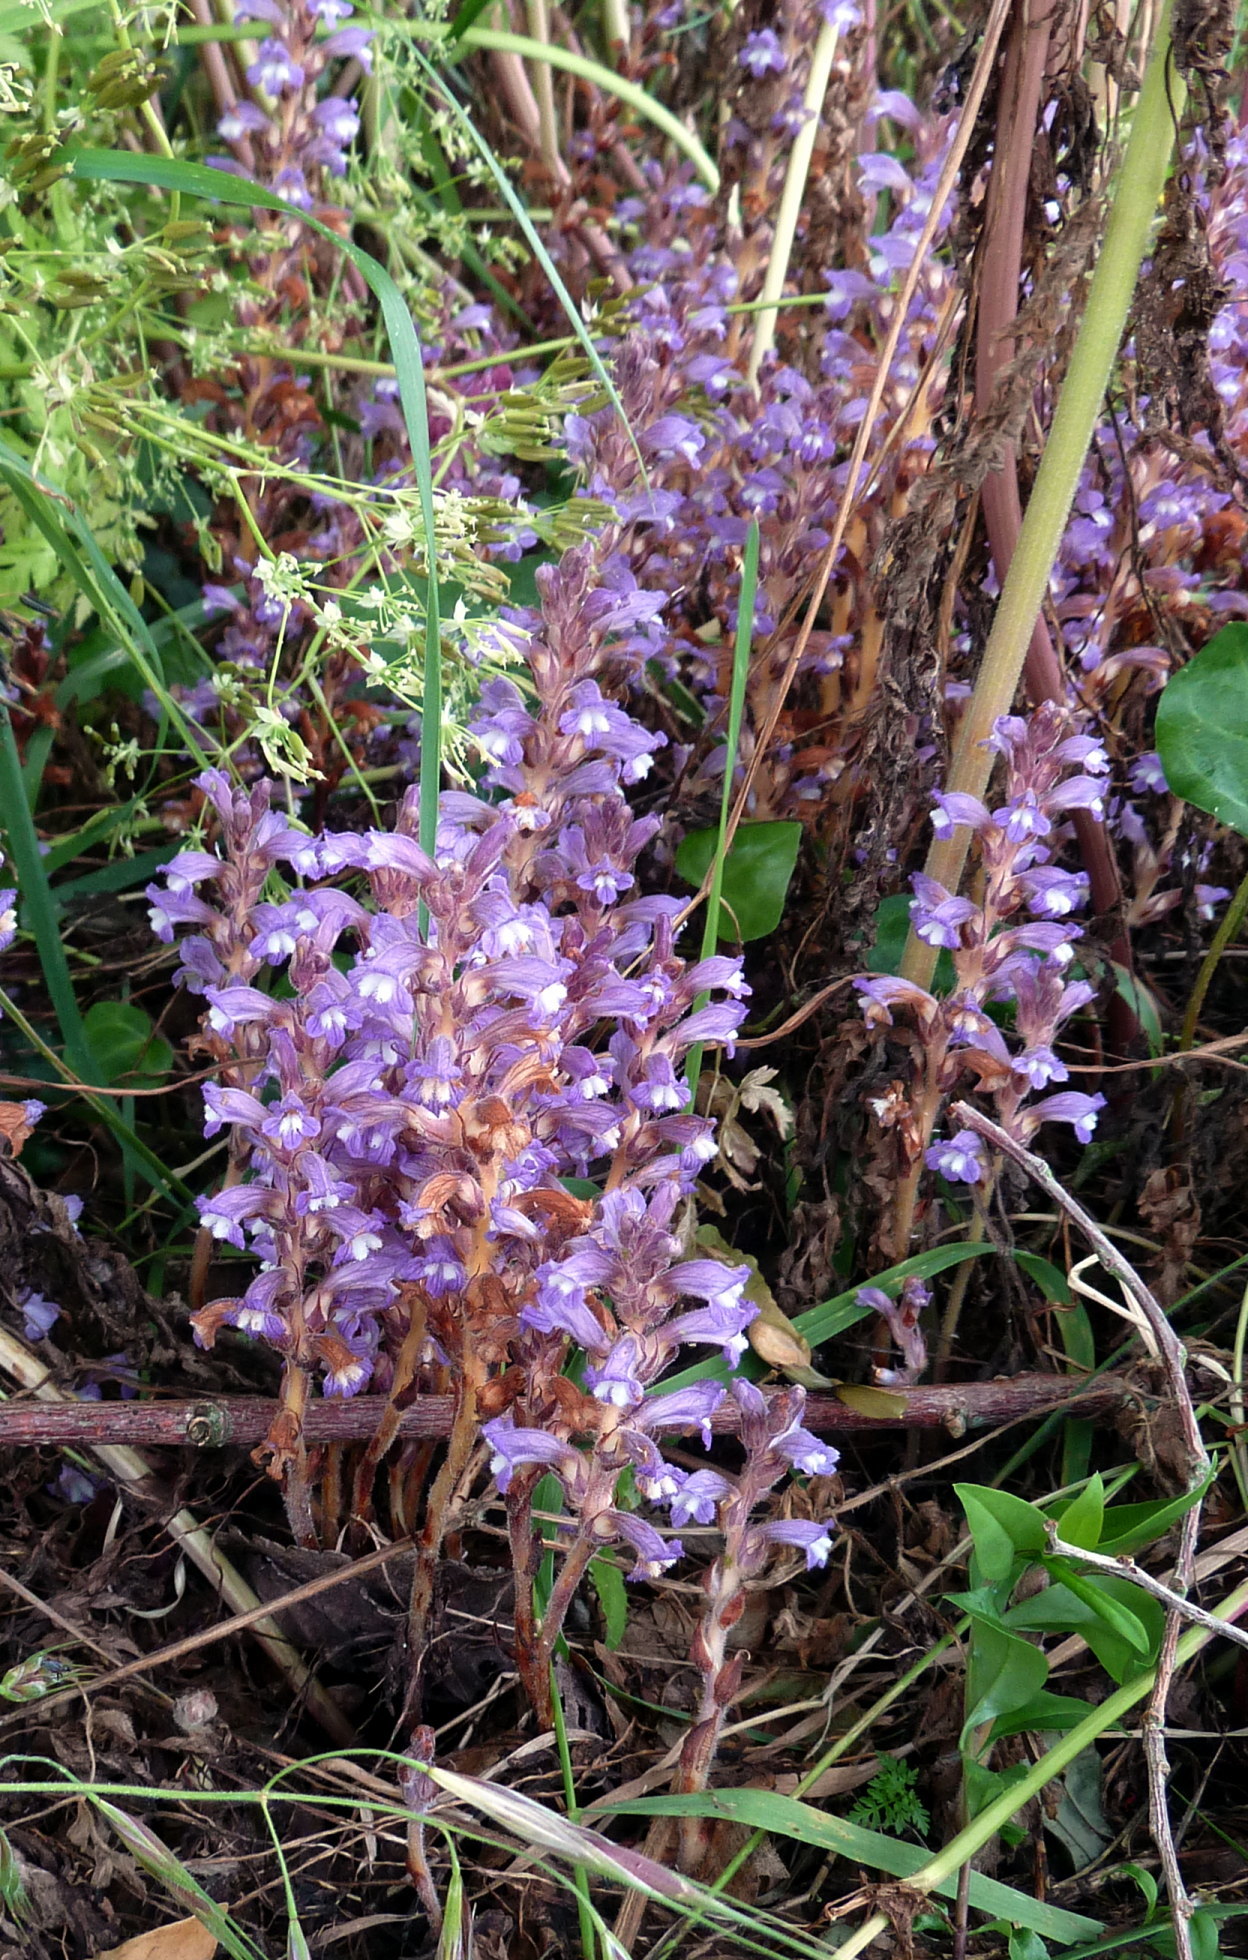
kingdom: Plantae
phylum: Tracheophyta
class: Magnoliopsida
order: Lamiales
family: Orobanchaceae
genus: Phelipanche
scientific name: Phelipanche mutelii
